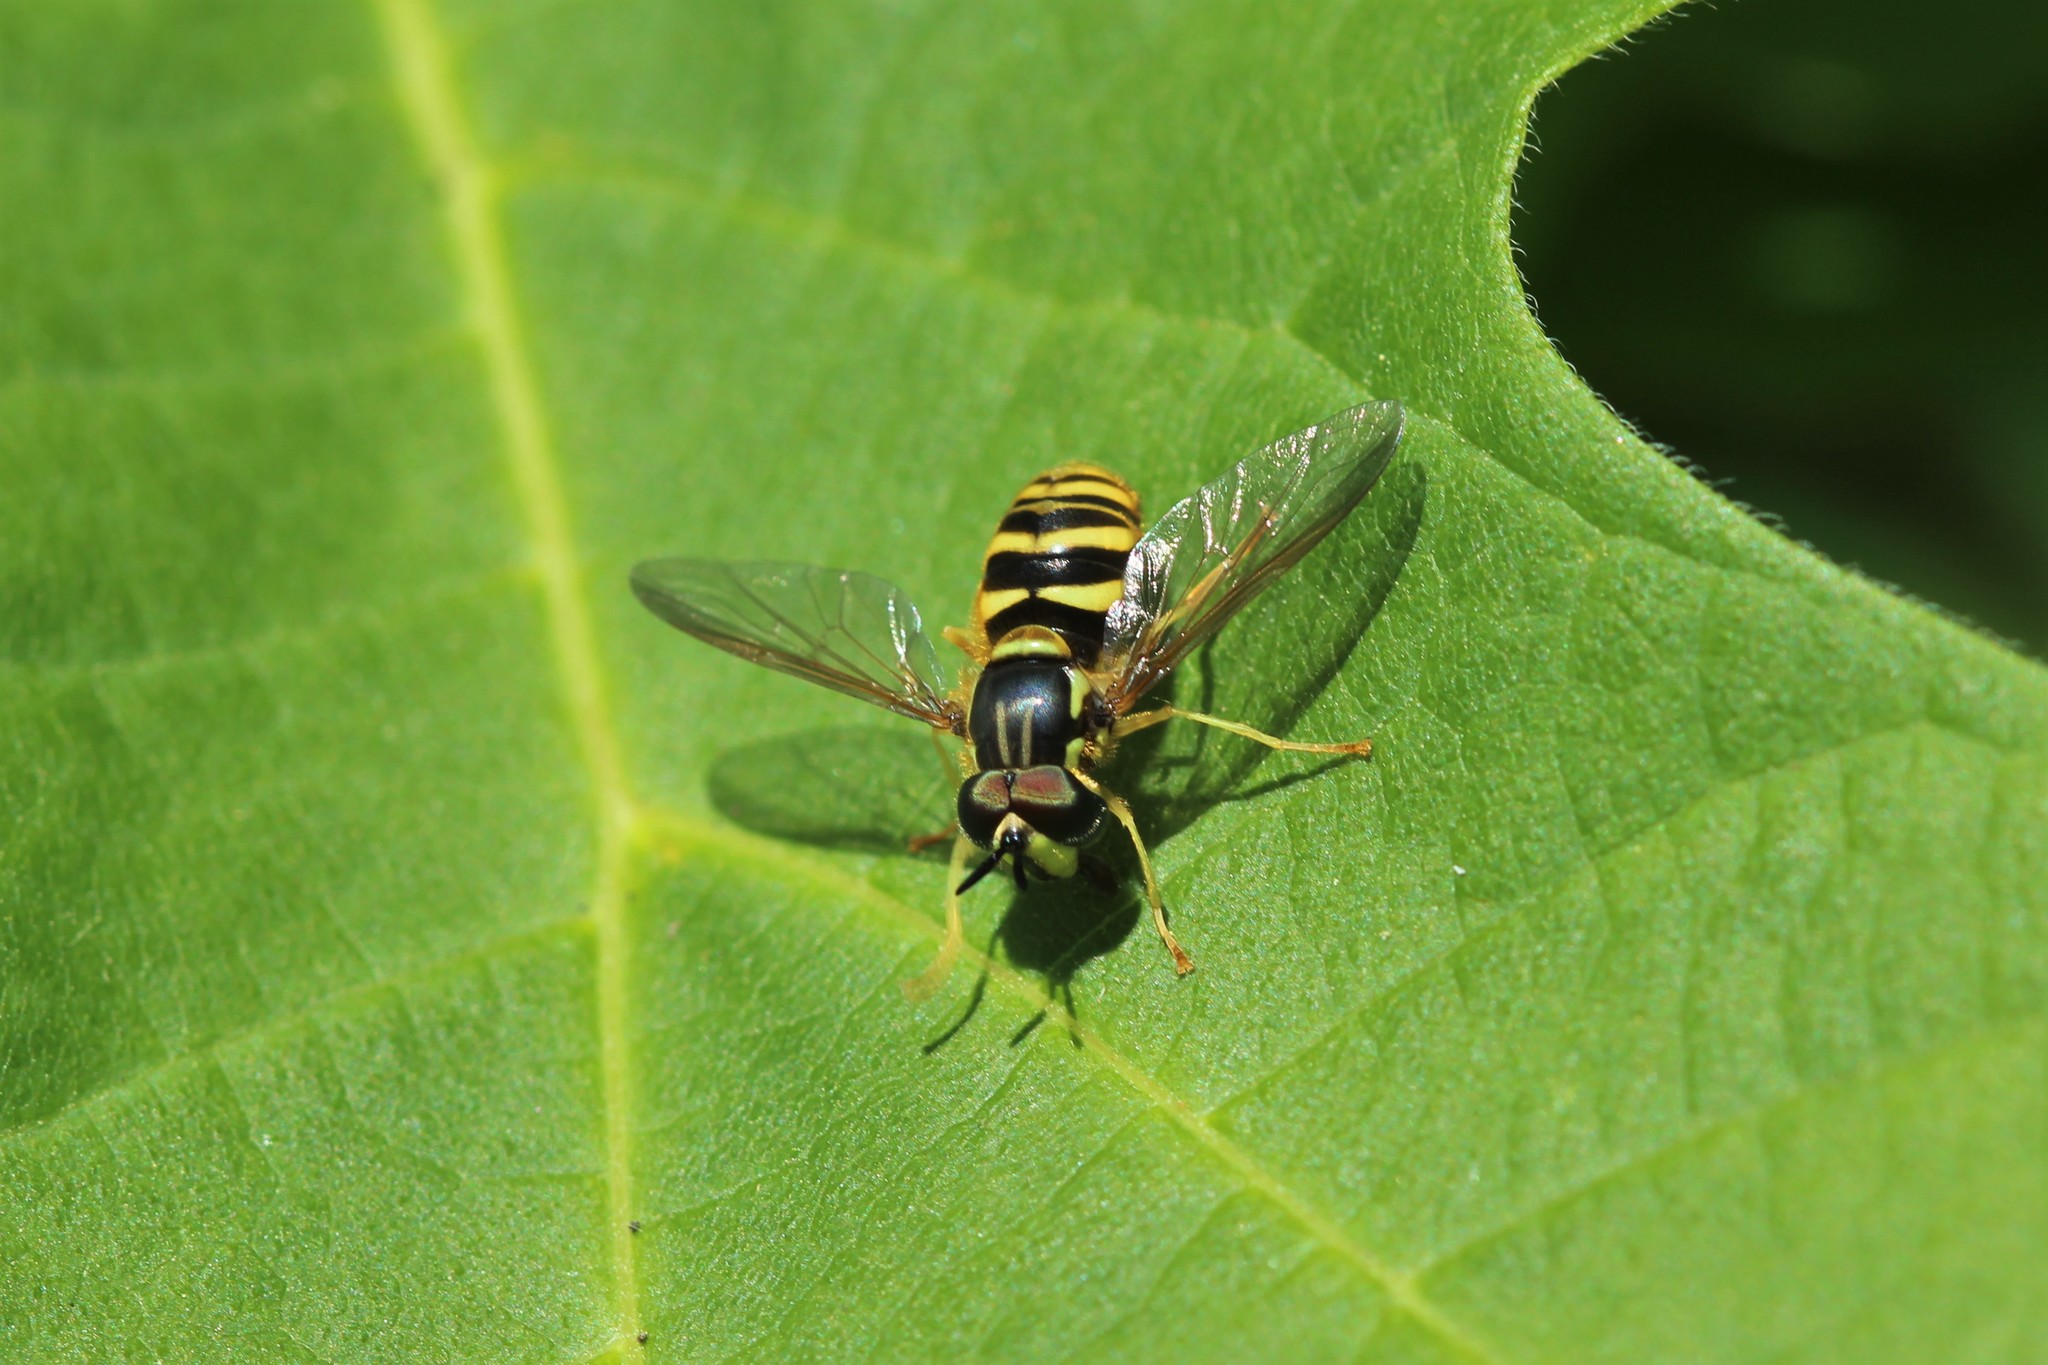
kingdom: Animalia
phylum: Arthropoda
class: Insecta
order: Diptera
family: Syrphidae
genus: Chrysotoxum
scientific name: Chrysotoxum
